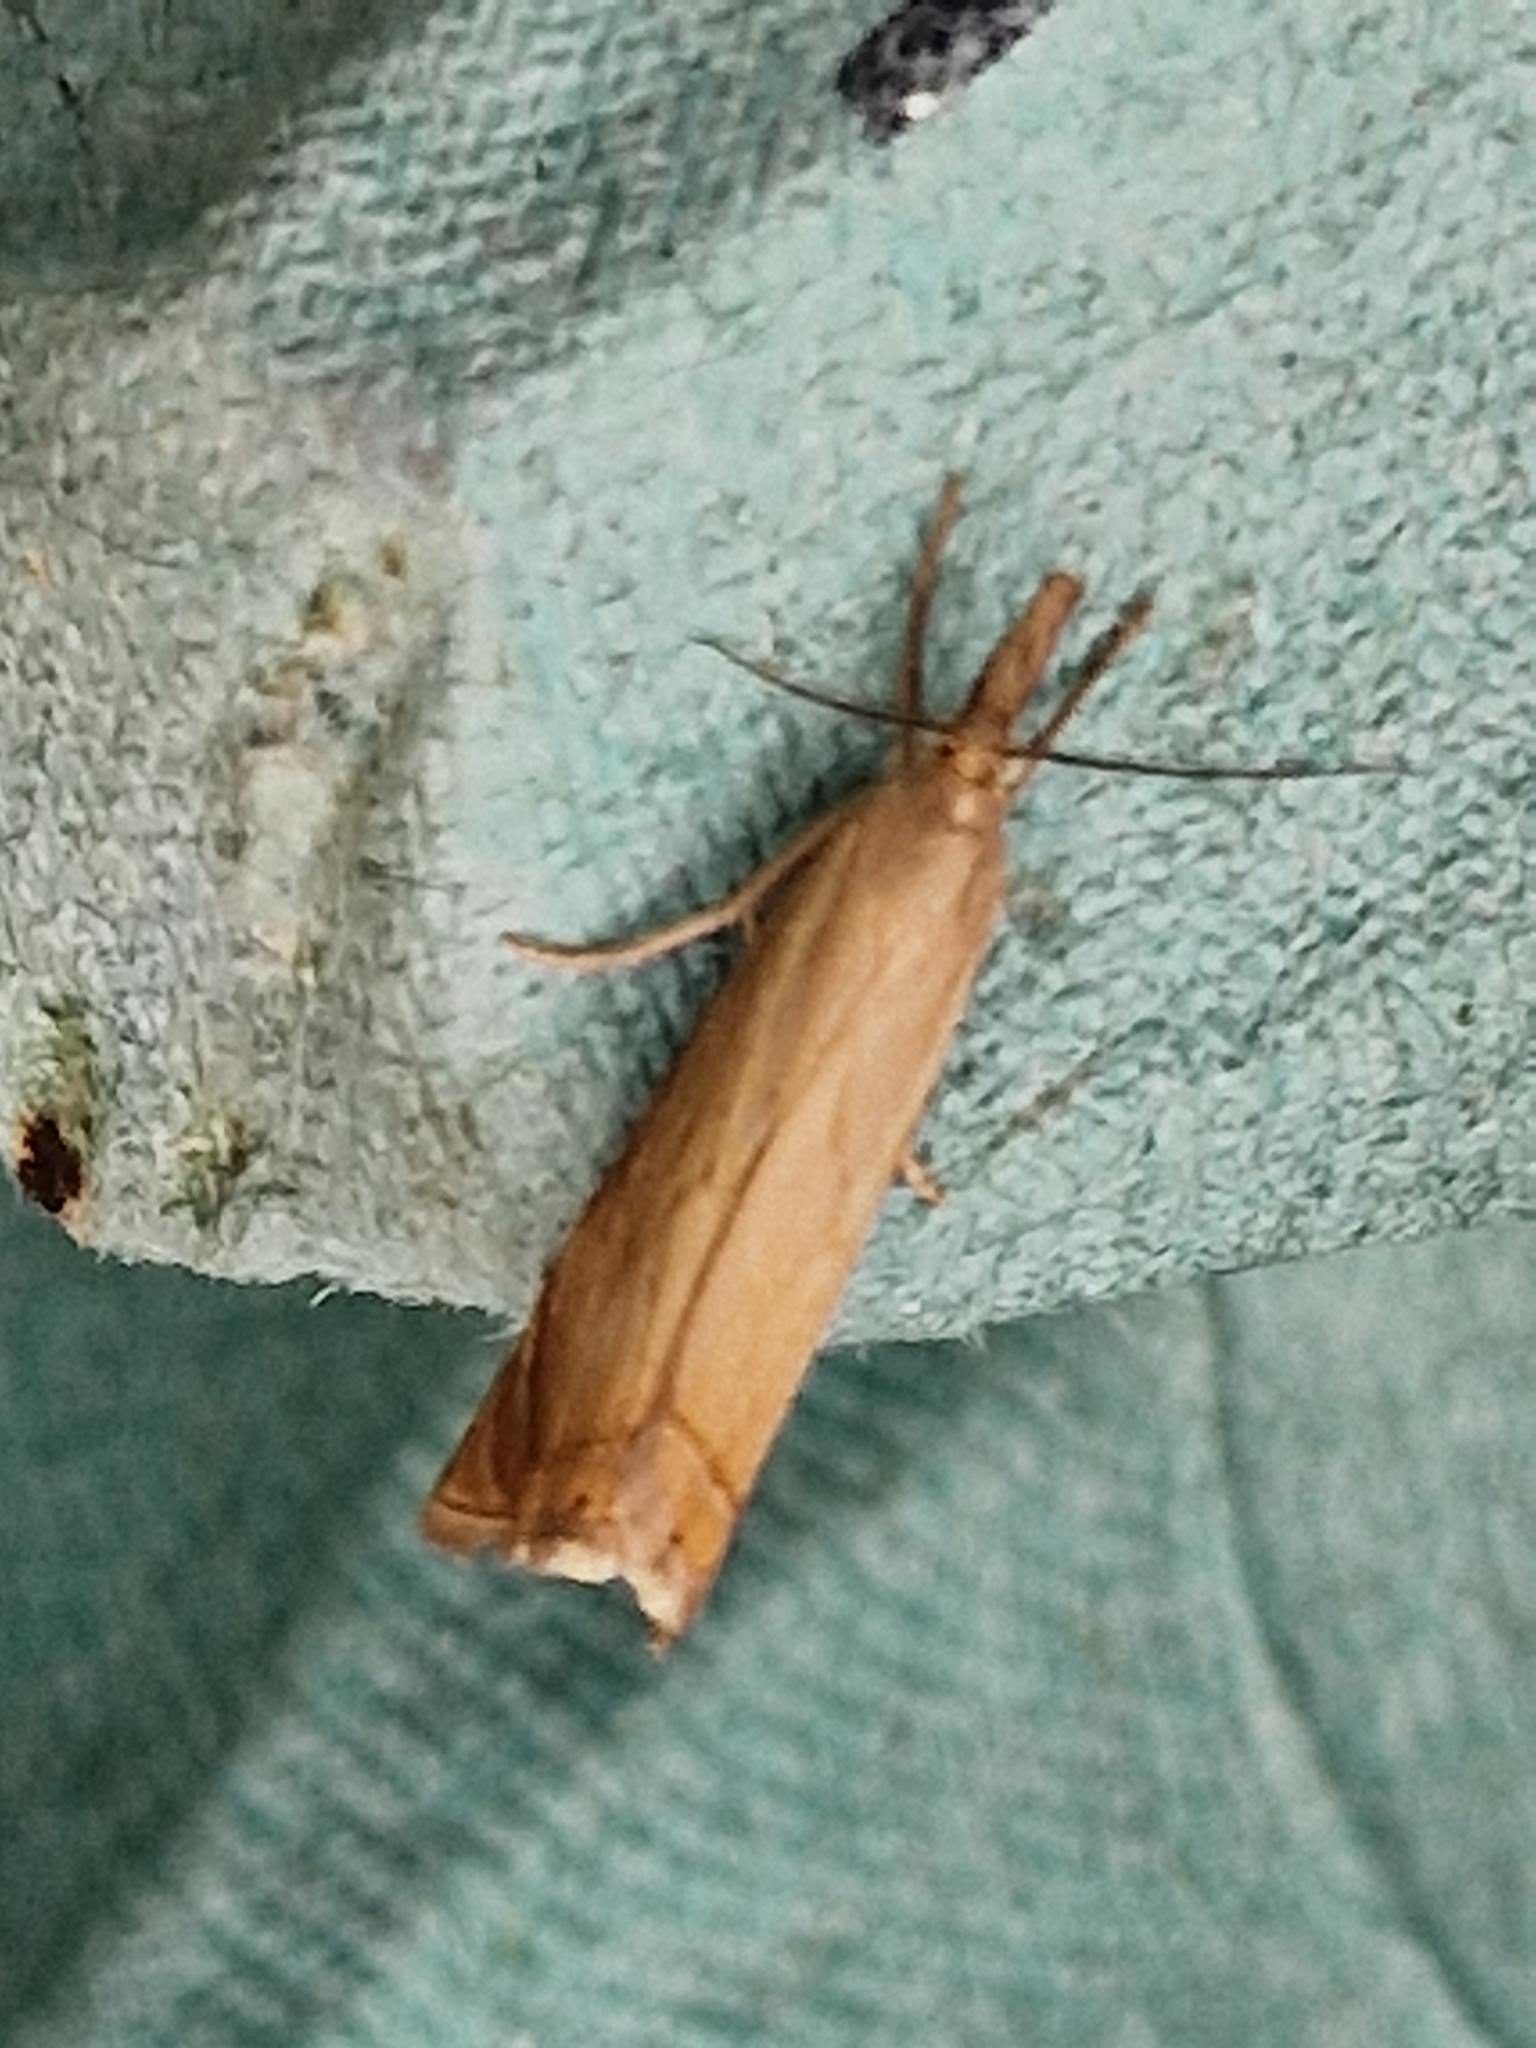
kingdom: Animalia
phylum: Arthropoda
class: Insecta
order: Lepidoptera
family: Crambidae
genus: Chrysoteuchia
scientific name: Chrysoteuchia culmella
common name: Garden grass-veneer
